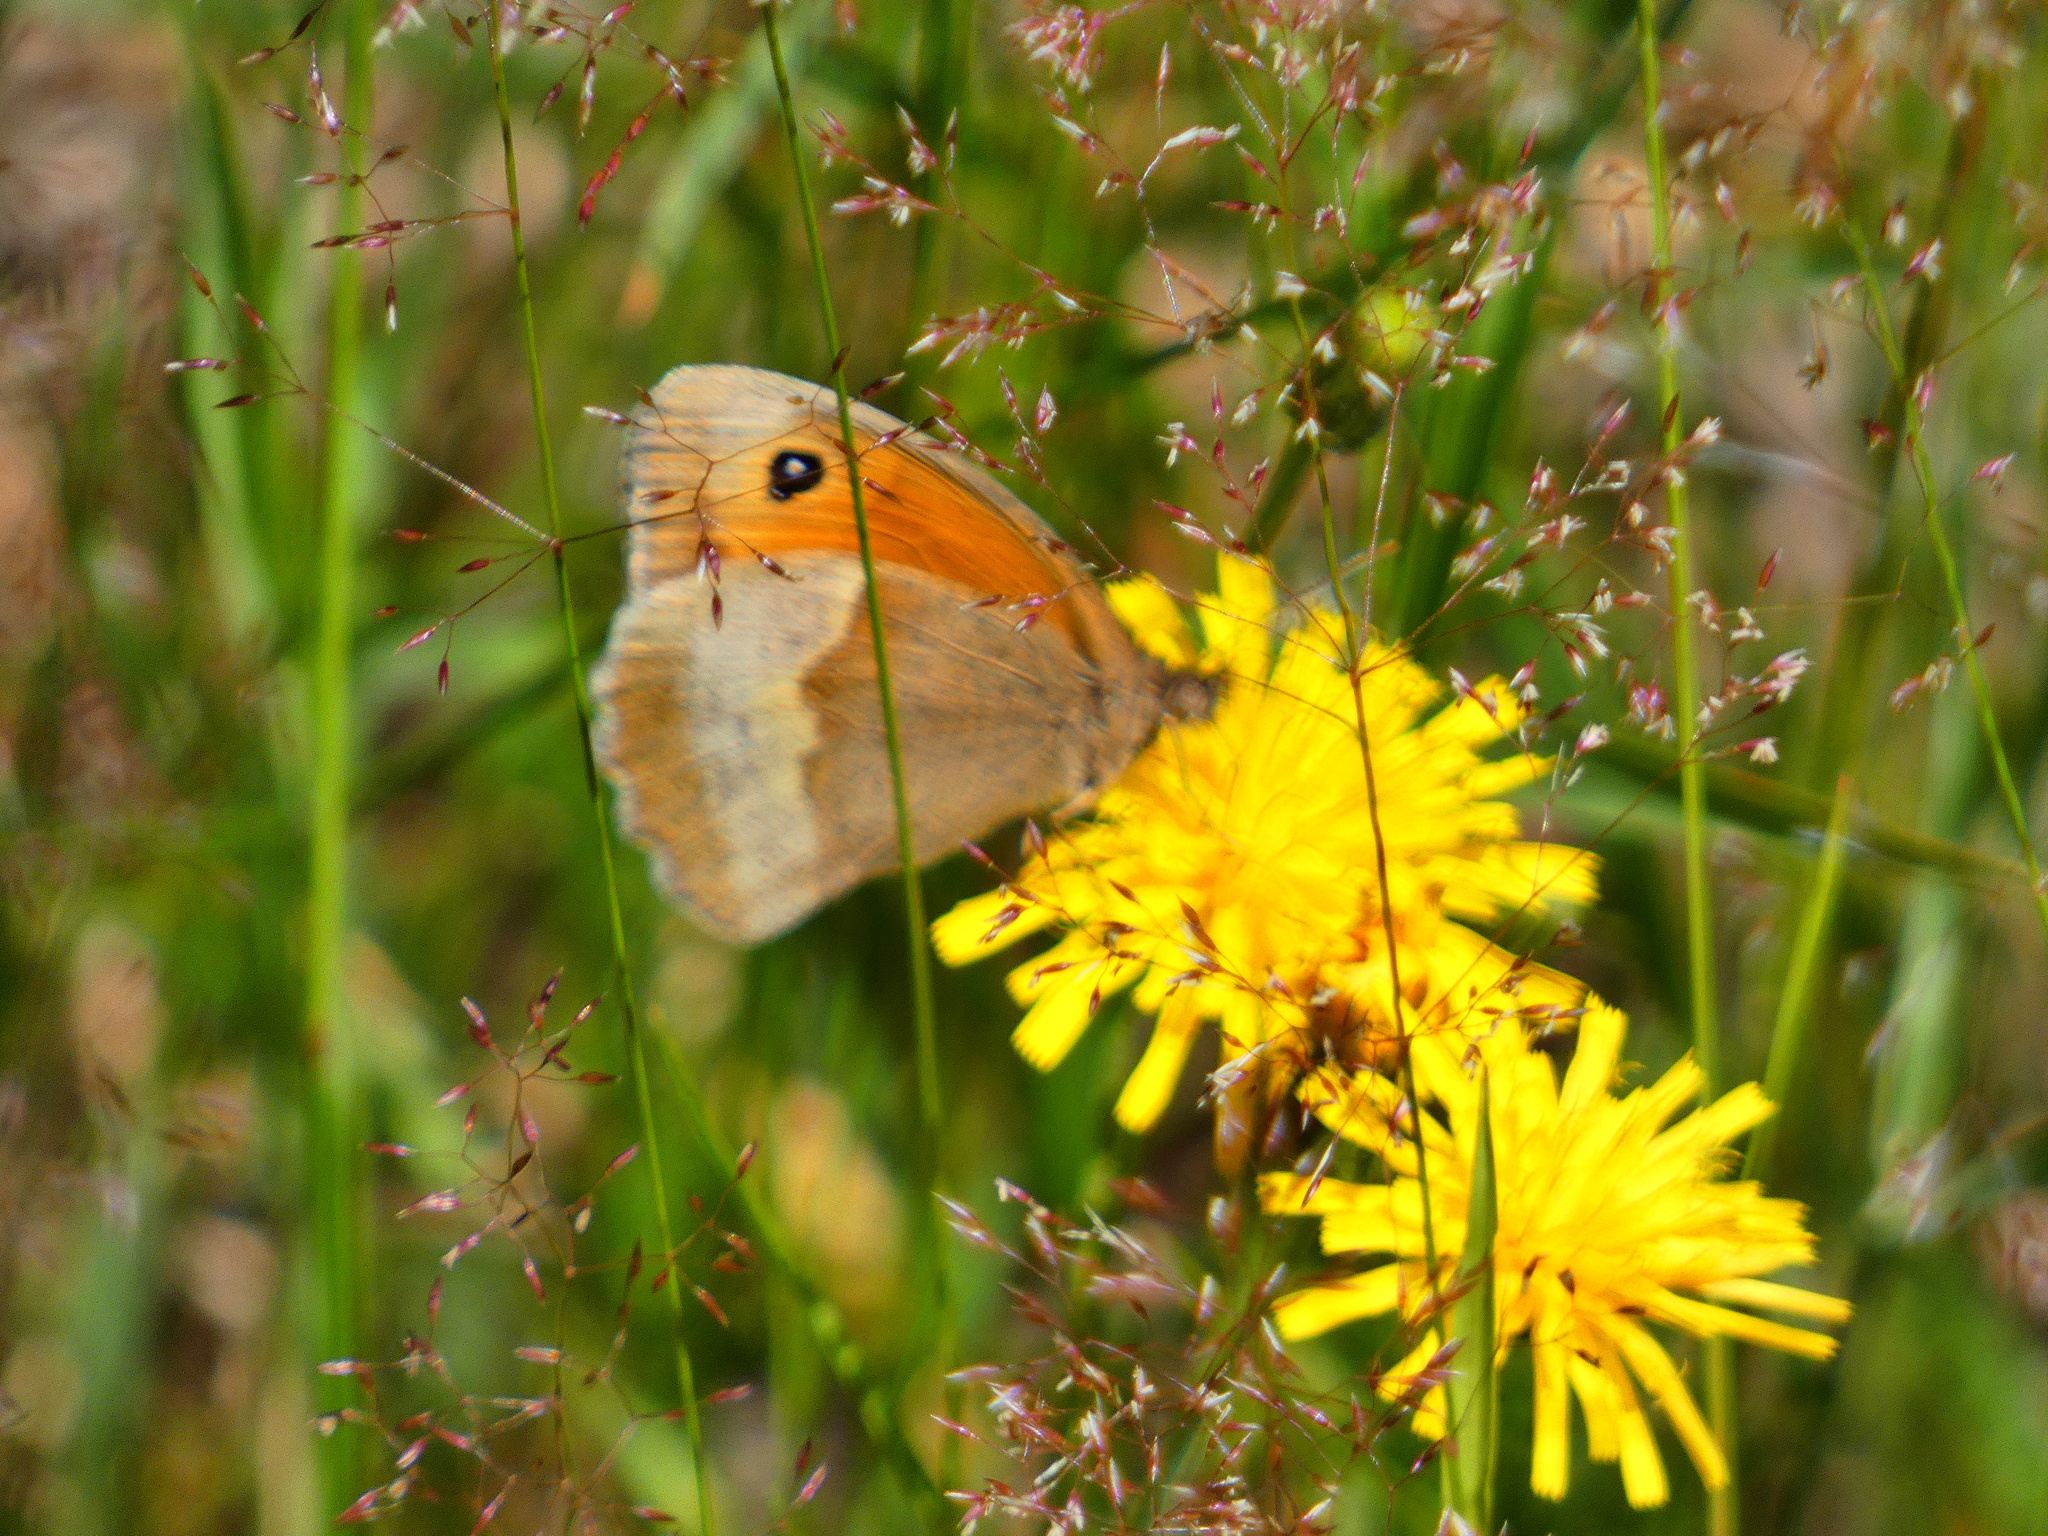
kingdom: Animalia
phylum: Arthropoda
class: Insecta
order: Lepidoptera
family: Nymphalidae
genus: Maniola
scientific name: Maniola jurtina
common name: Meadow brown
